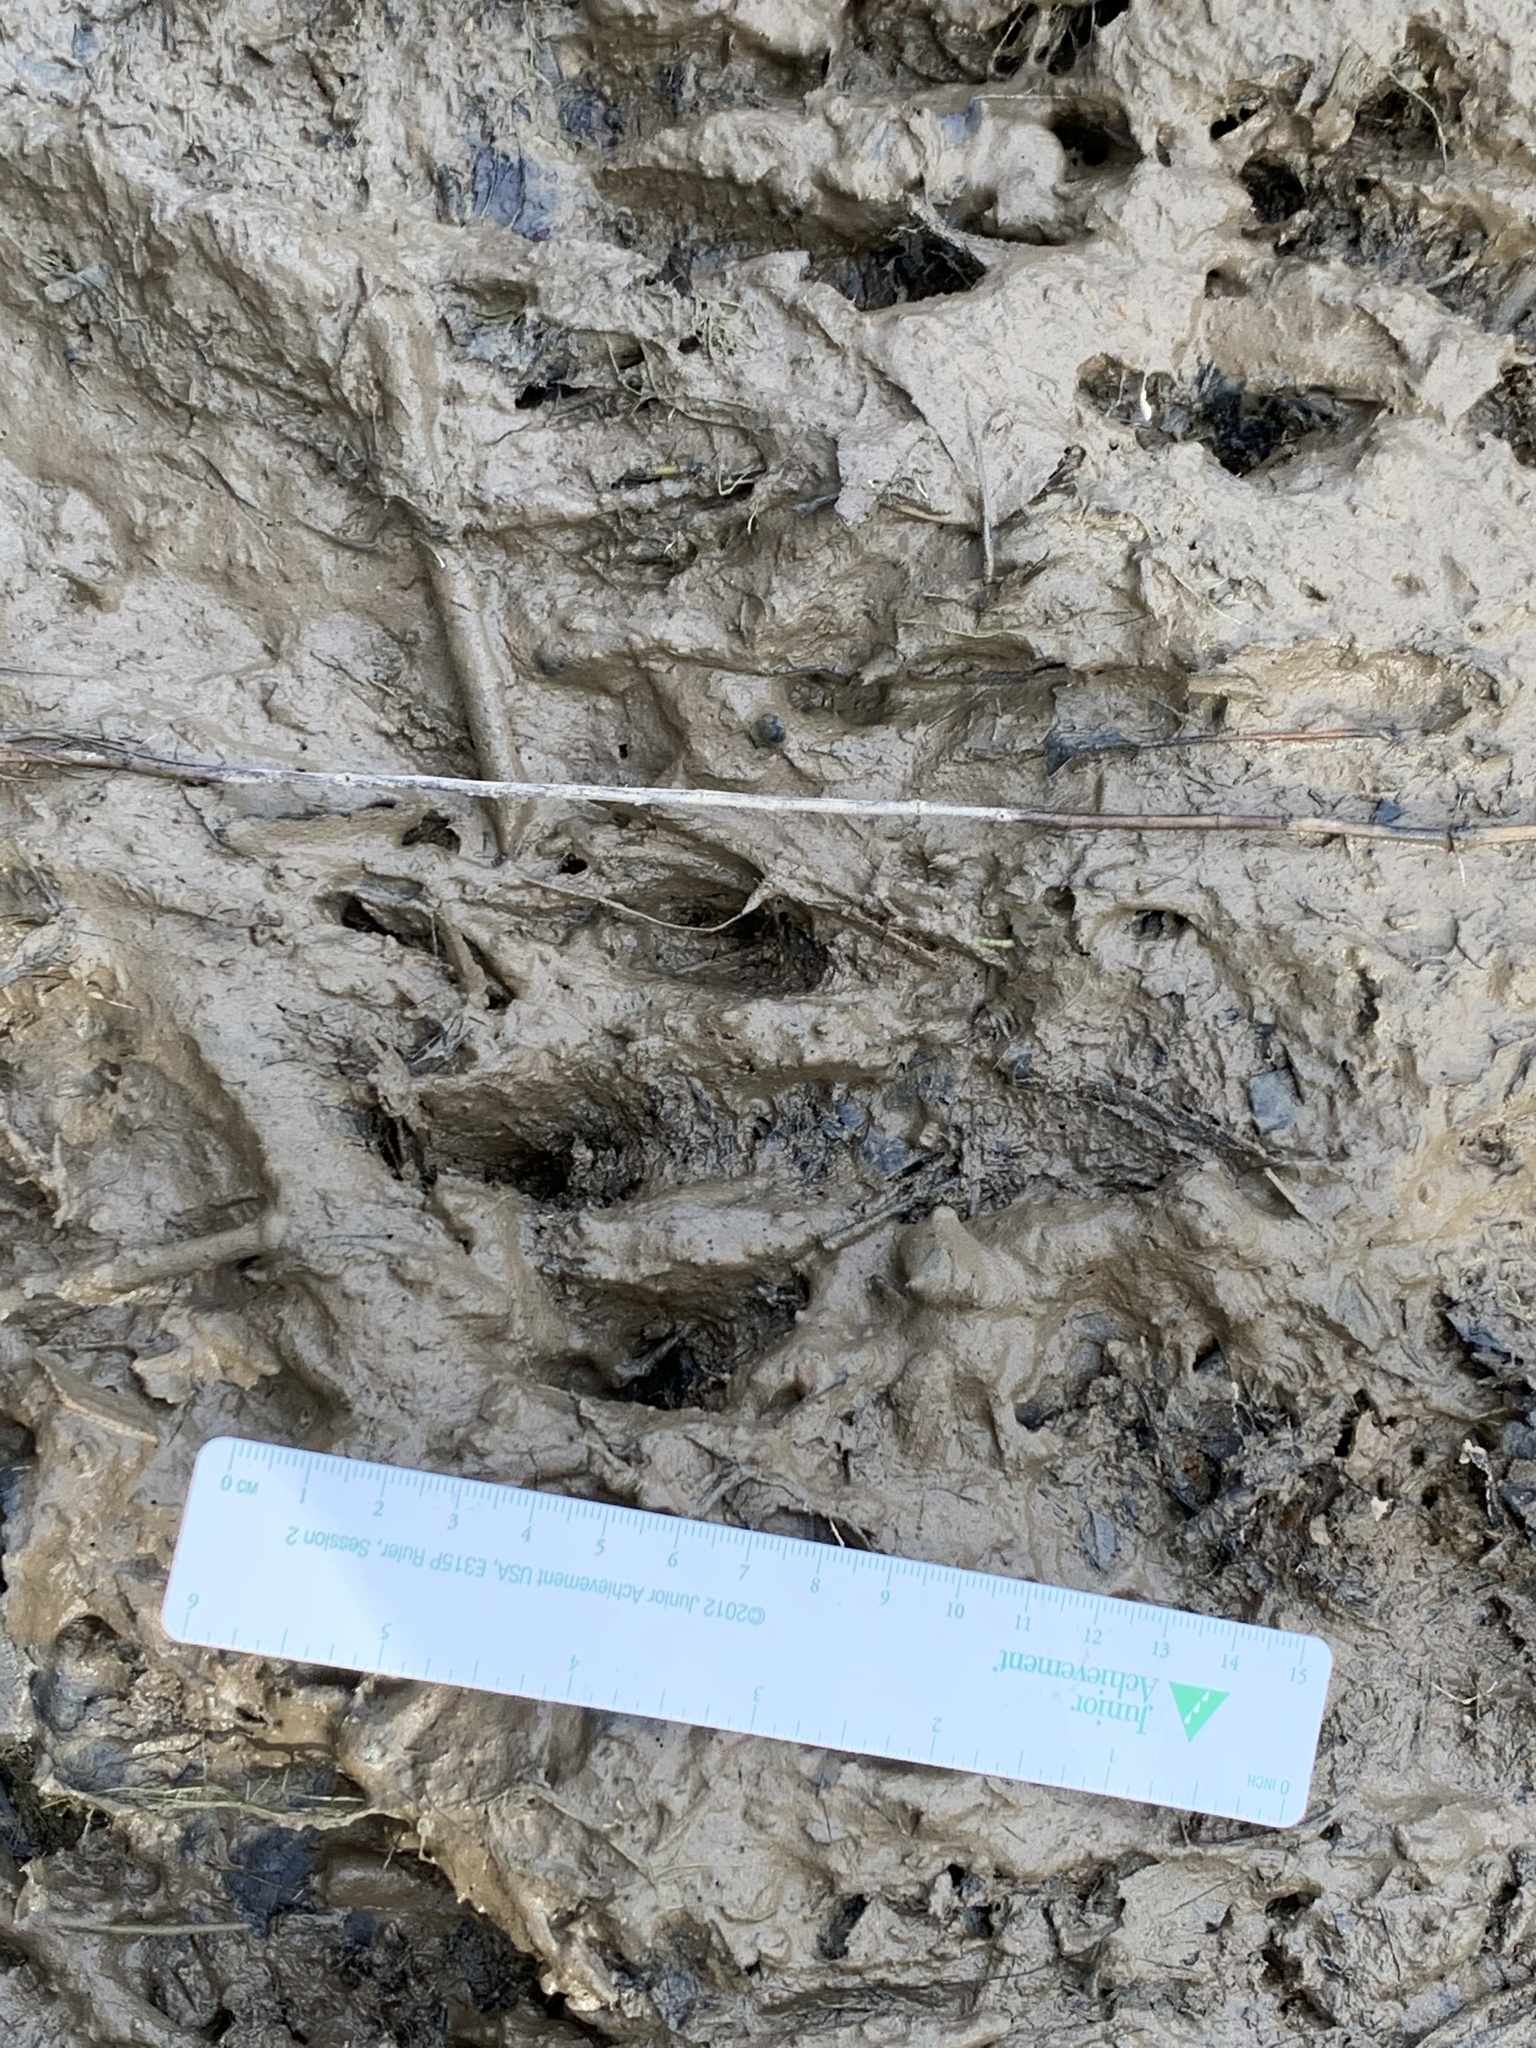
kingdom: Animalia
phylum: Chordata
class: Mammalia
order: Rodentia
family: Castoridae
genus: Castor
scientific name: Castor canadensis
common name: American beaver
